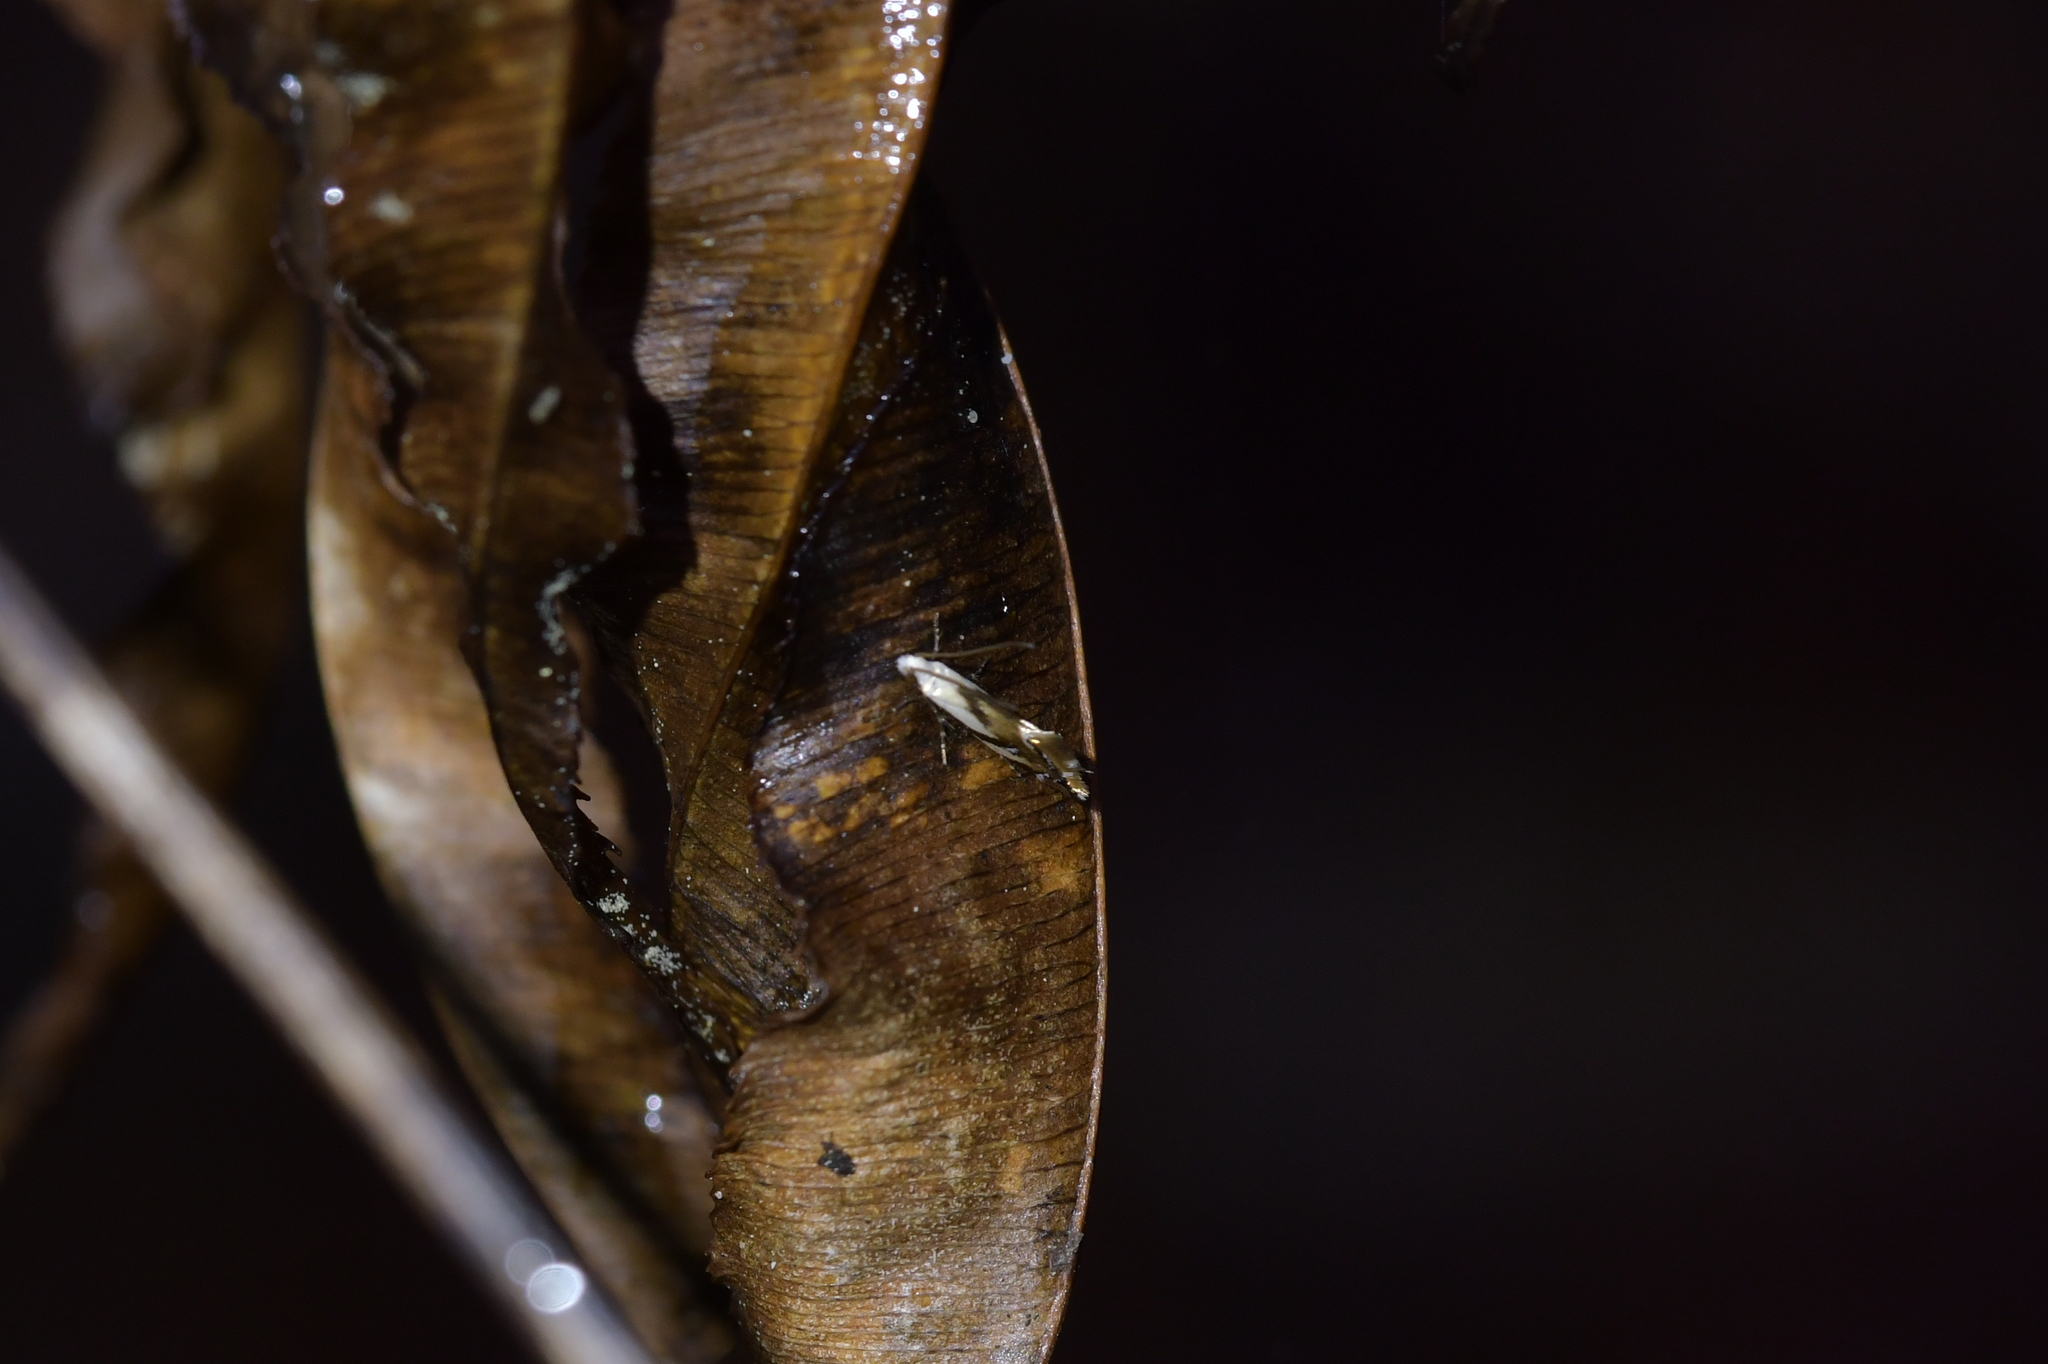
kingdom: Animalia
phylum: Arthropoda
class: Insecta
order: Lepidoptera
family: Mnesarchaeidae
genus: Mnesarchella
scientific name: Mnesarchella acuta
